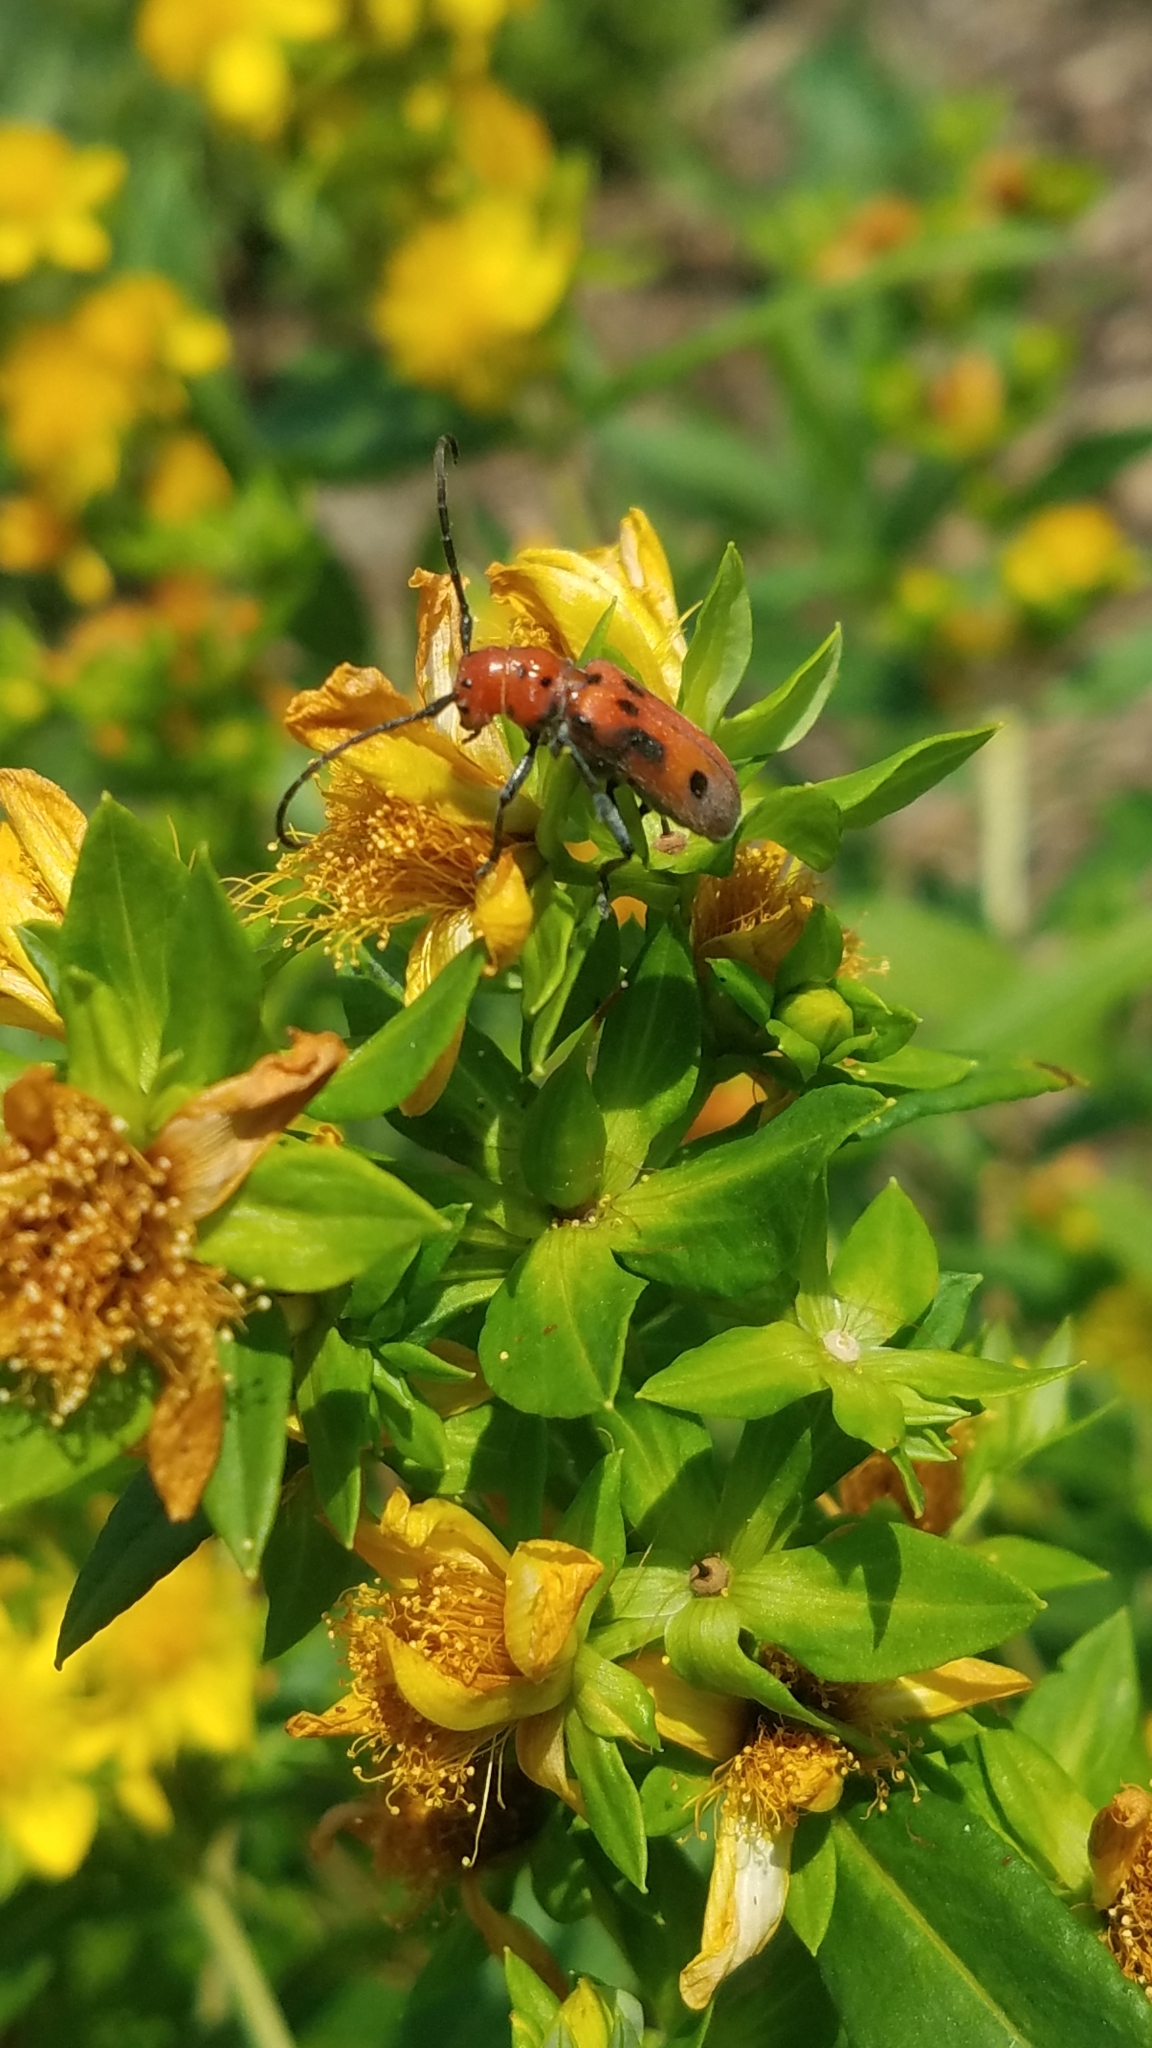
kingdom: Animalia
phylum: Arthropoda
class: Insecta
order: Coleoptera
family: Cerambycidae
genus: Tetraopes
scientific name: Tetraopes tetrophthalmus
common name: Red milkweed beetle
